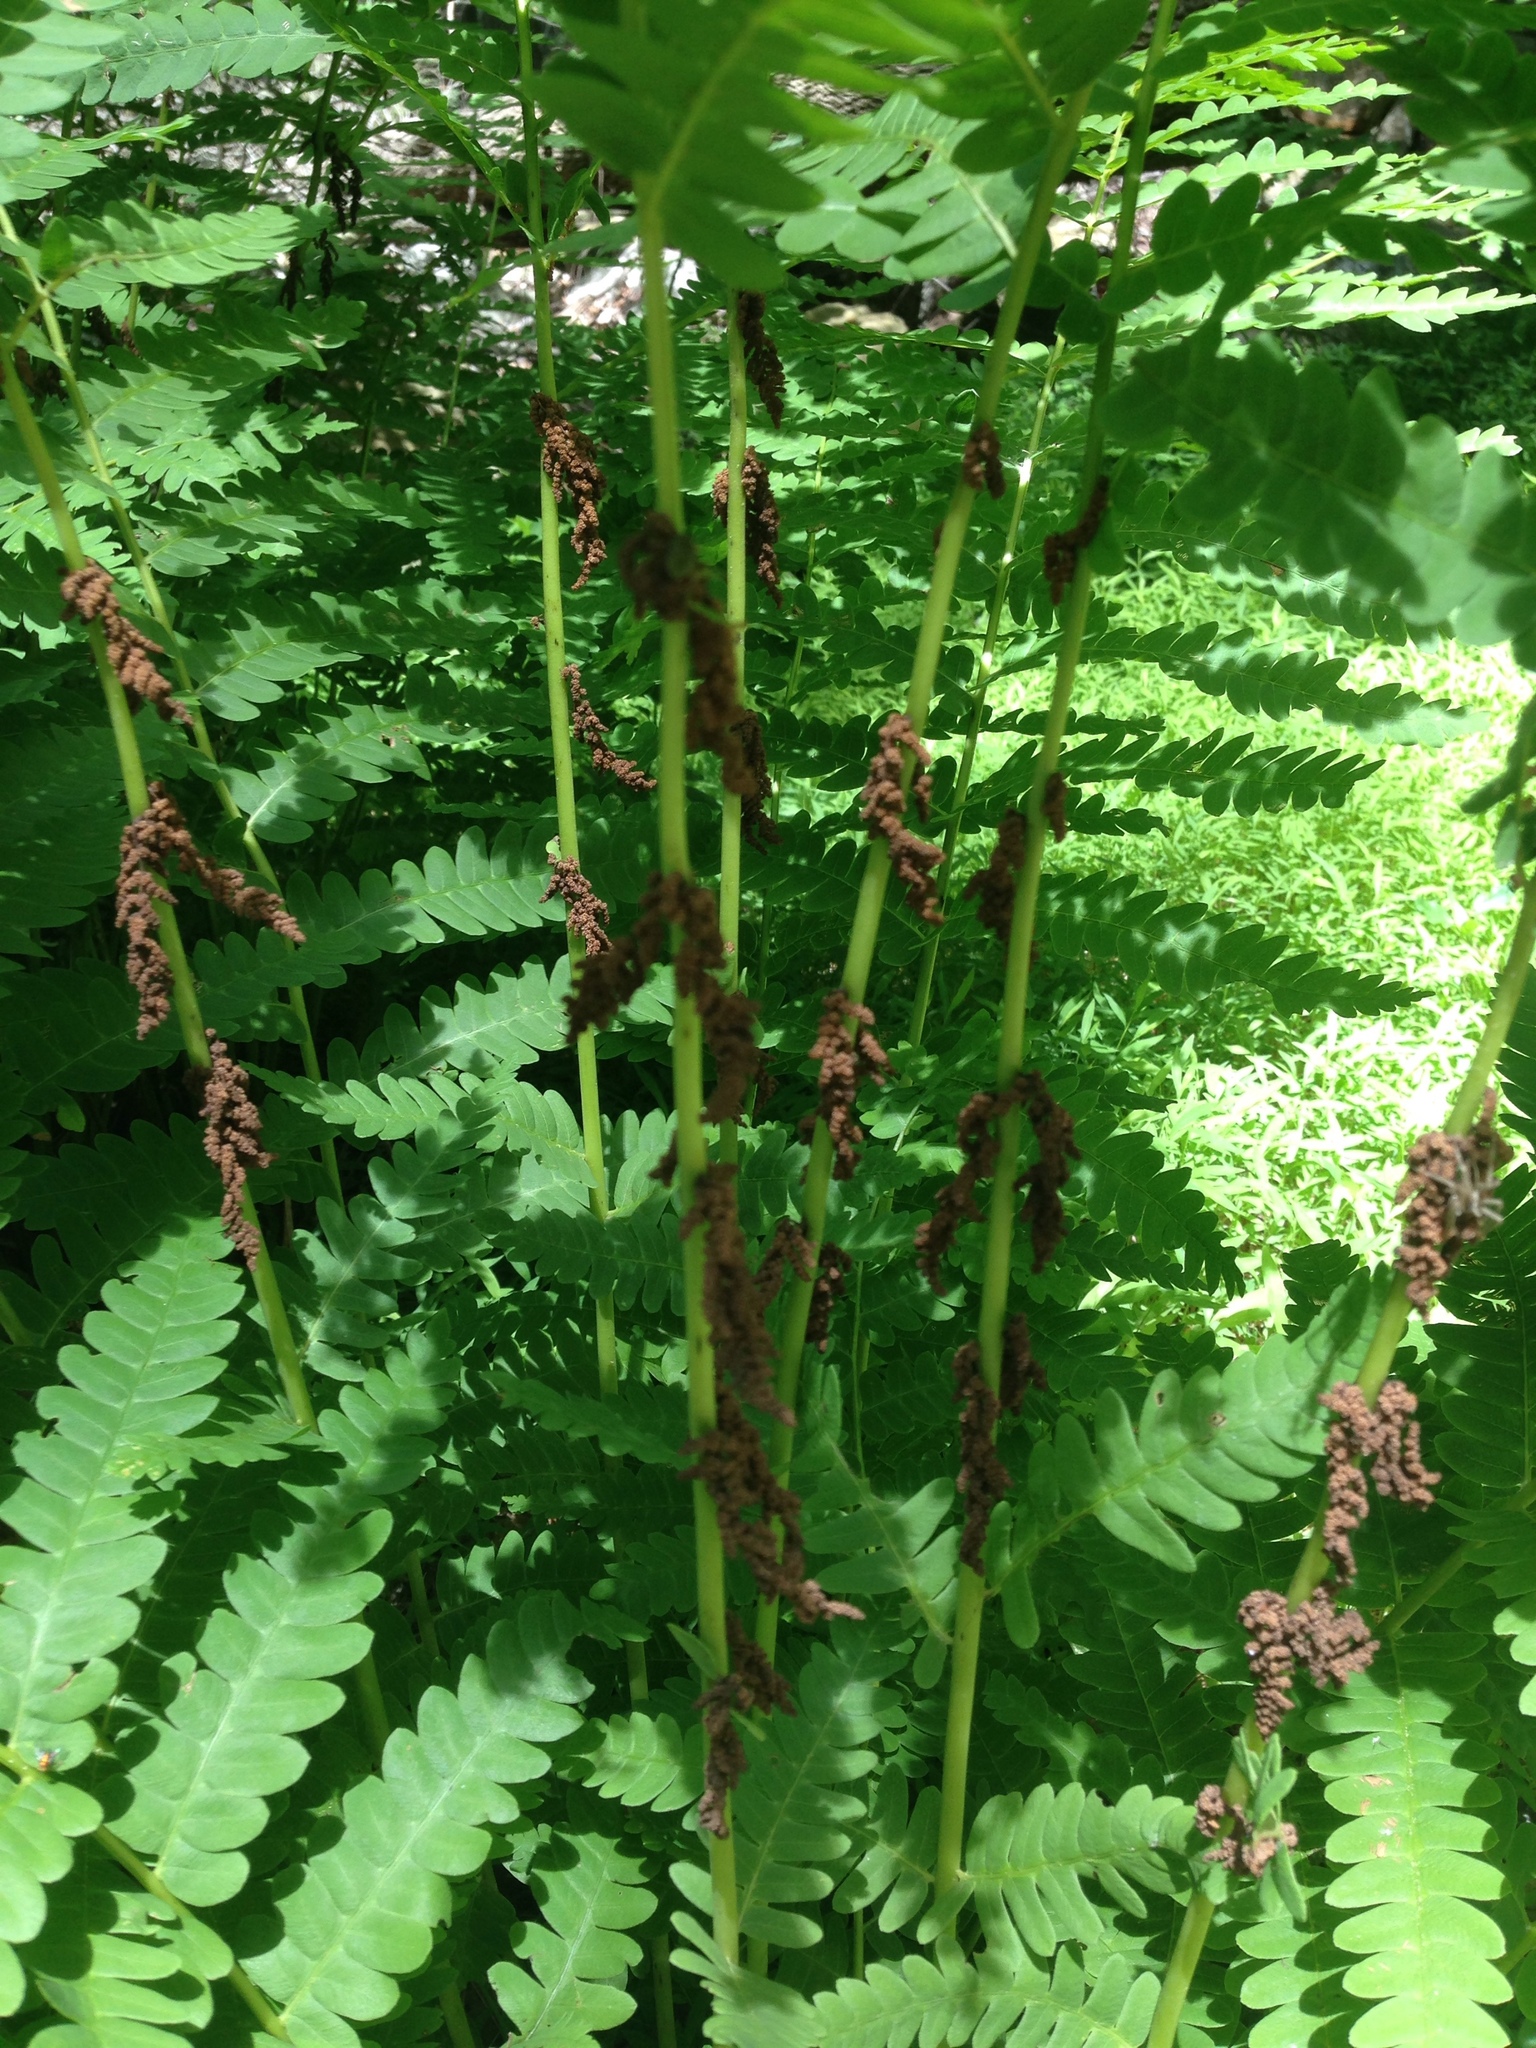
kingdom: Plantae
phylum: Tracheophyta
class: Polypodiopsida
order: Osmundales
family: Osmundaceae
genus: Claytosmunda
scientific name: Claytosmunda claytoniana
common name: Clayton's fern
